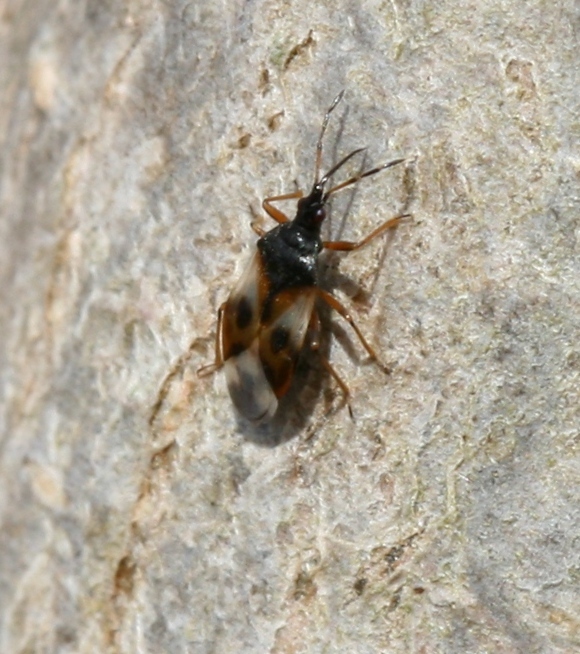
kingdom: Animalia
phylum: Arthropoda
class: Insecta
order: Hemiptera
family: Anthocoridae
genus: Anthocoris
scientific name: Anthocoris nemorum
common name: Minute pirate bug
